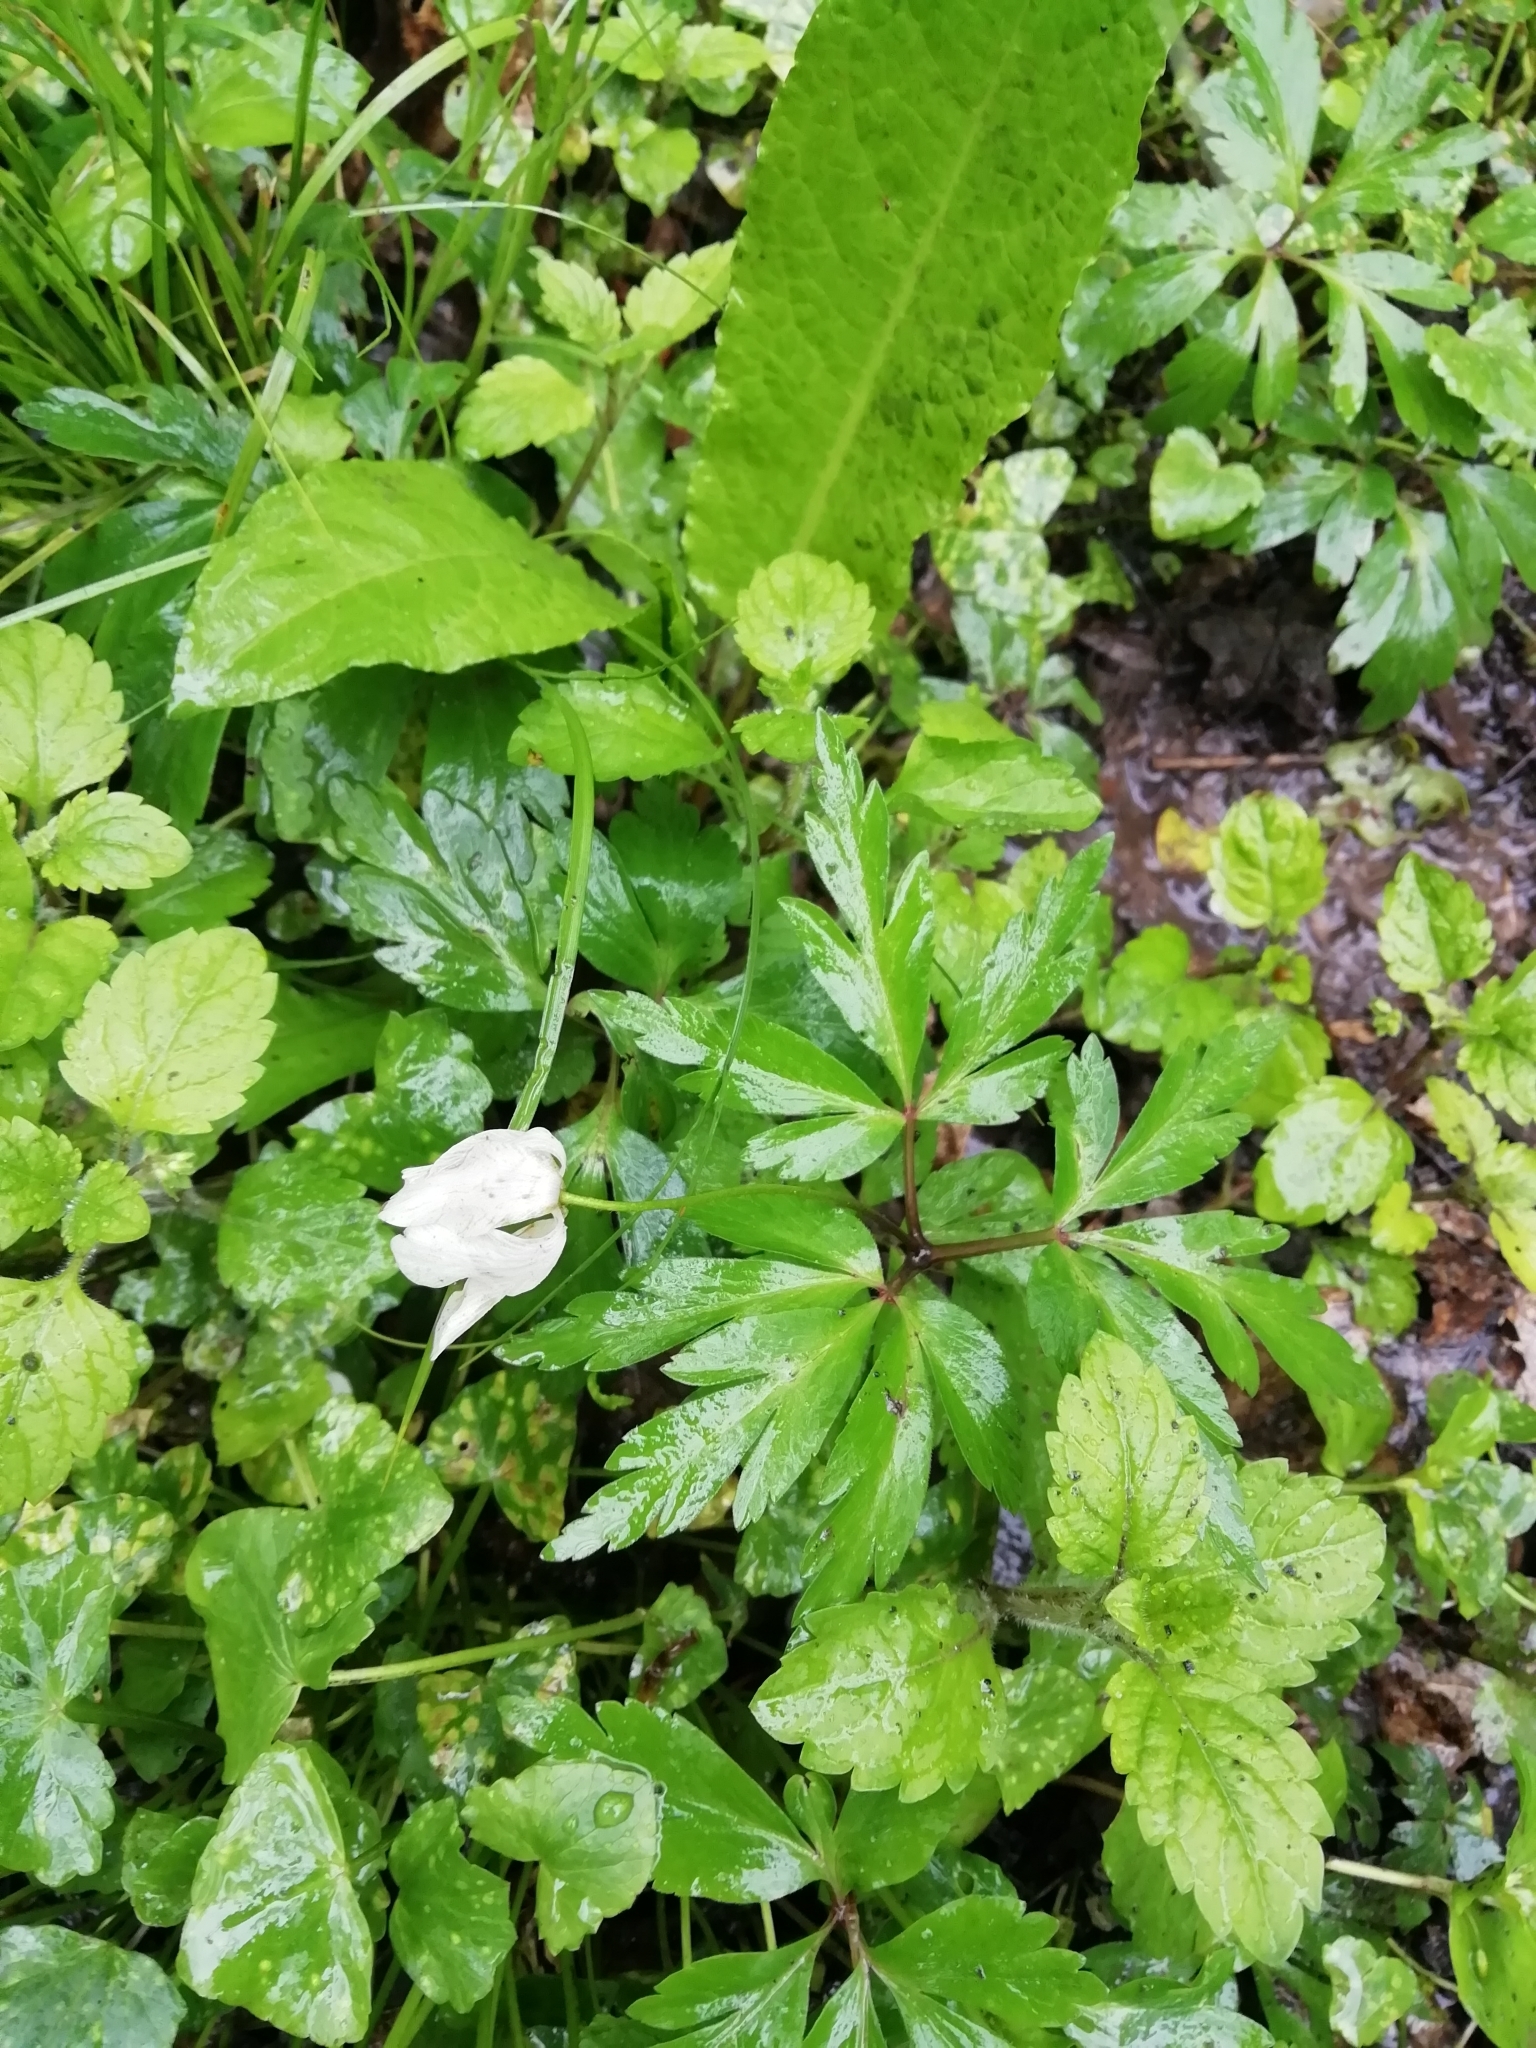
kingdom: Plantae
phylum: Tracheophyta
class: Magnoliopsida
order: Ranunculales
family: Ranunculaceae
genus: Anemone
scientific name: Anemone nemorosa
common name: Wood anemone
